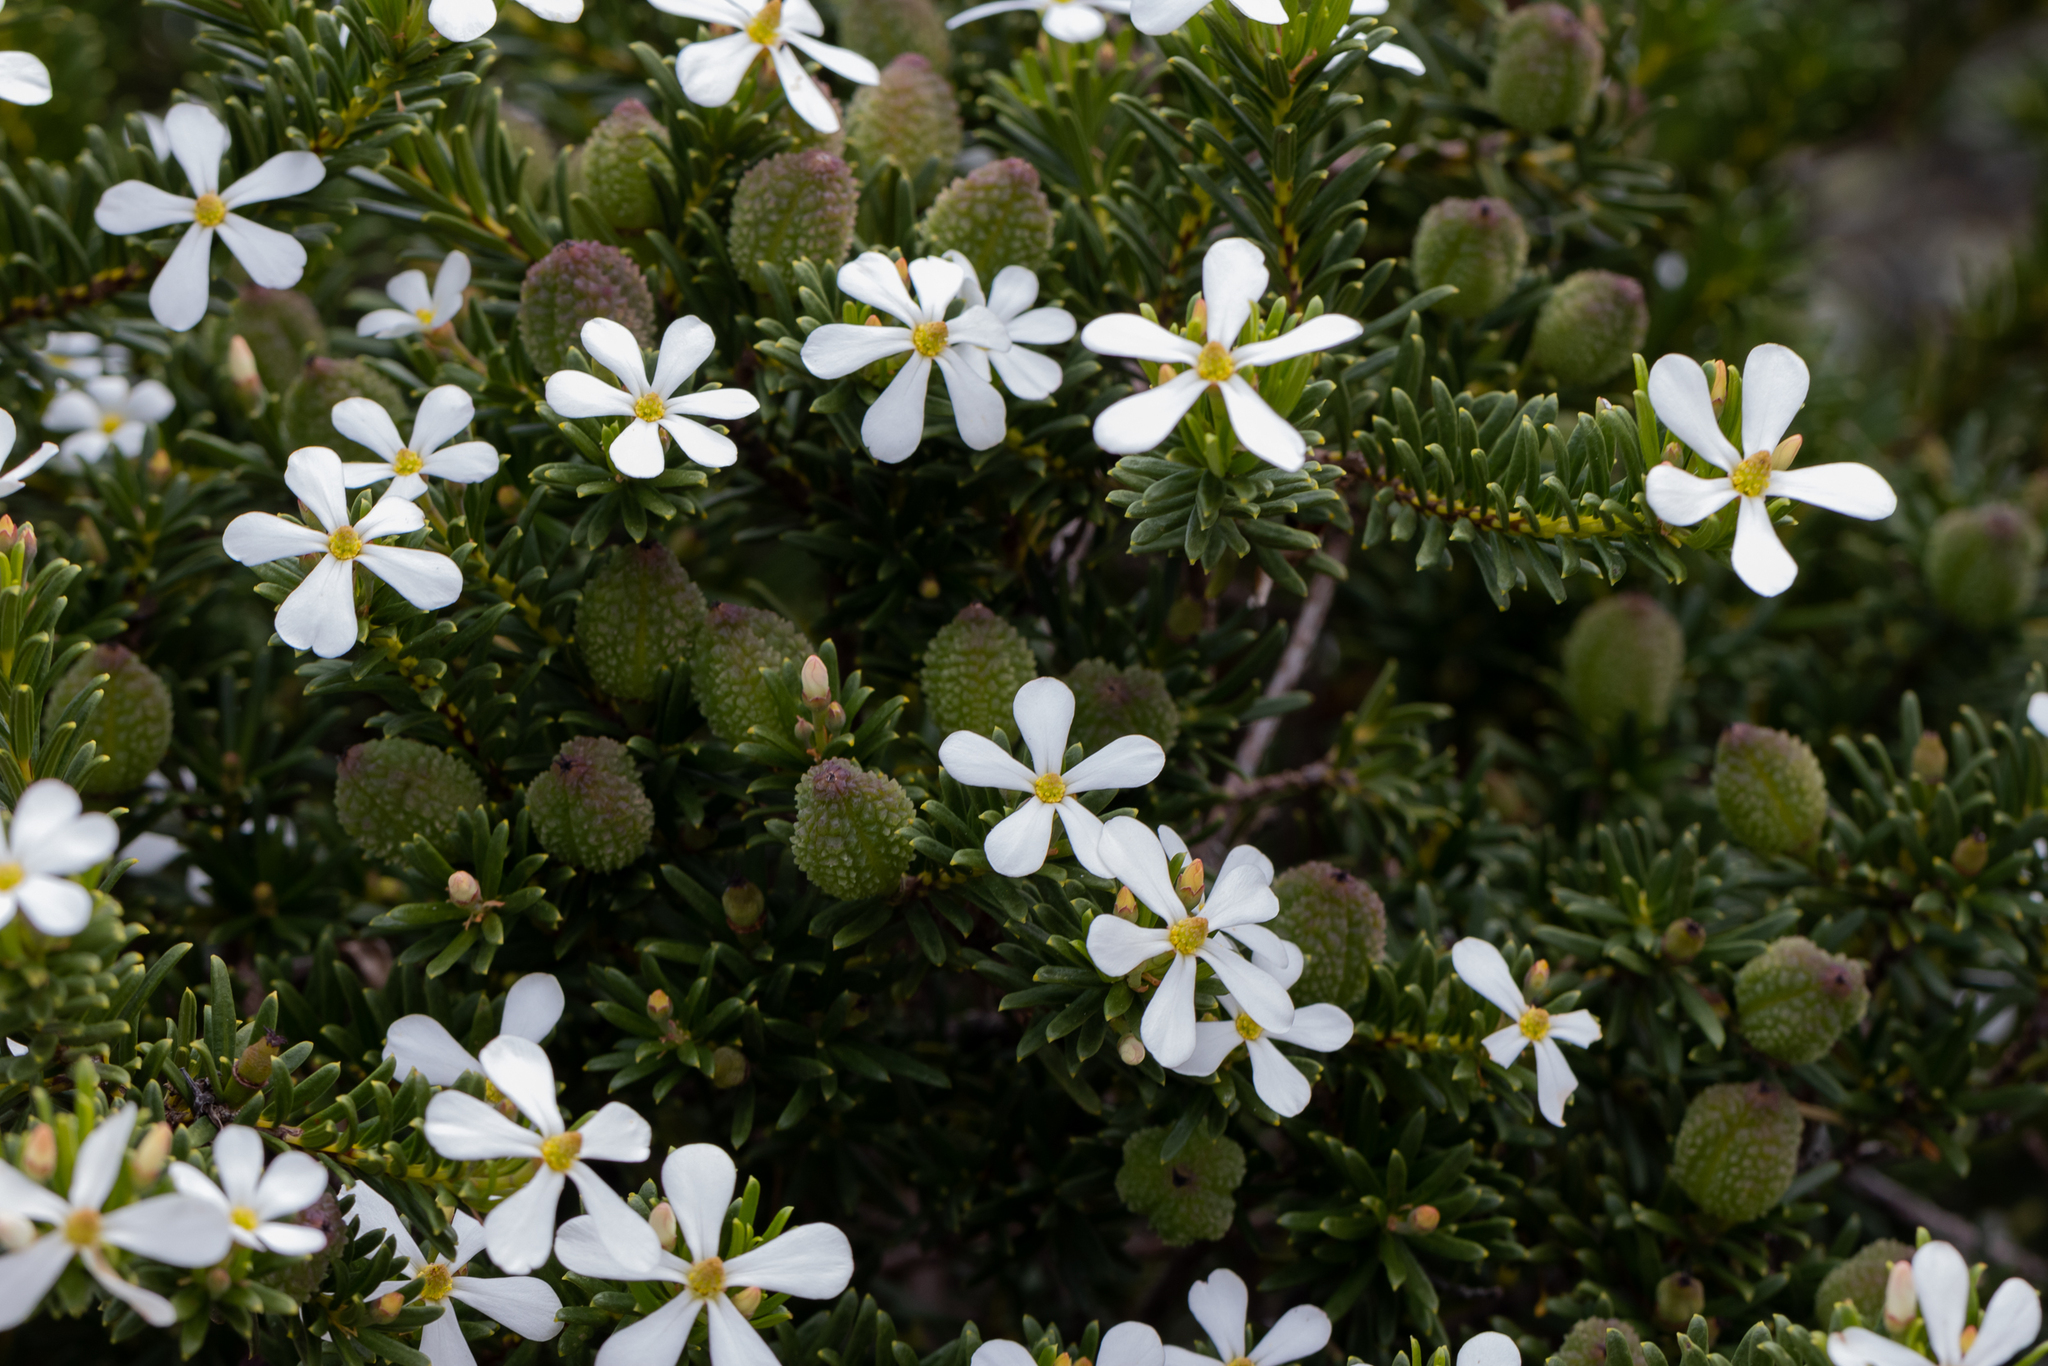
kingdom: Plantae
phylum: Tracheophyta
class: Magnoliopsida
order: Malpighiales
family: Euphorbiaceae
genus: Ricinocarpos
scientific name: Ricinocarpos megalocarpus
